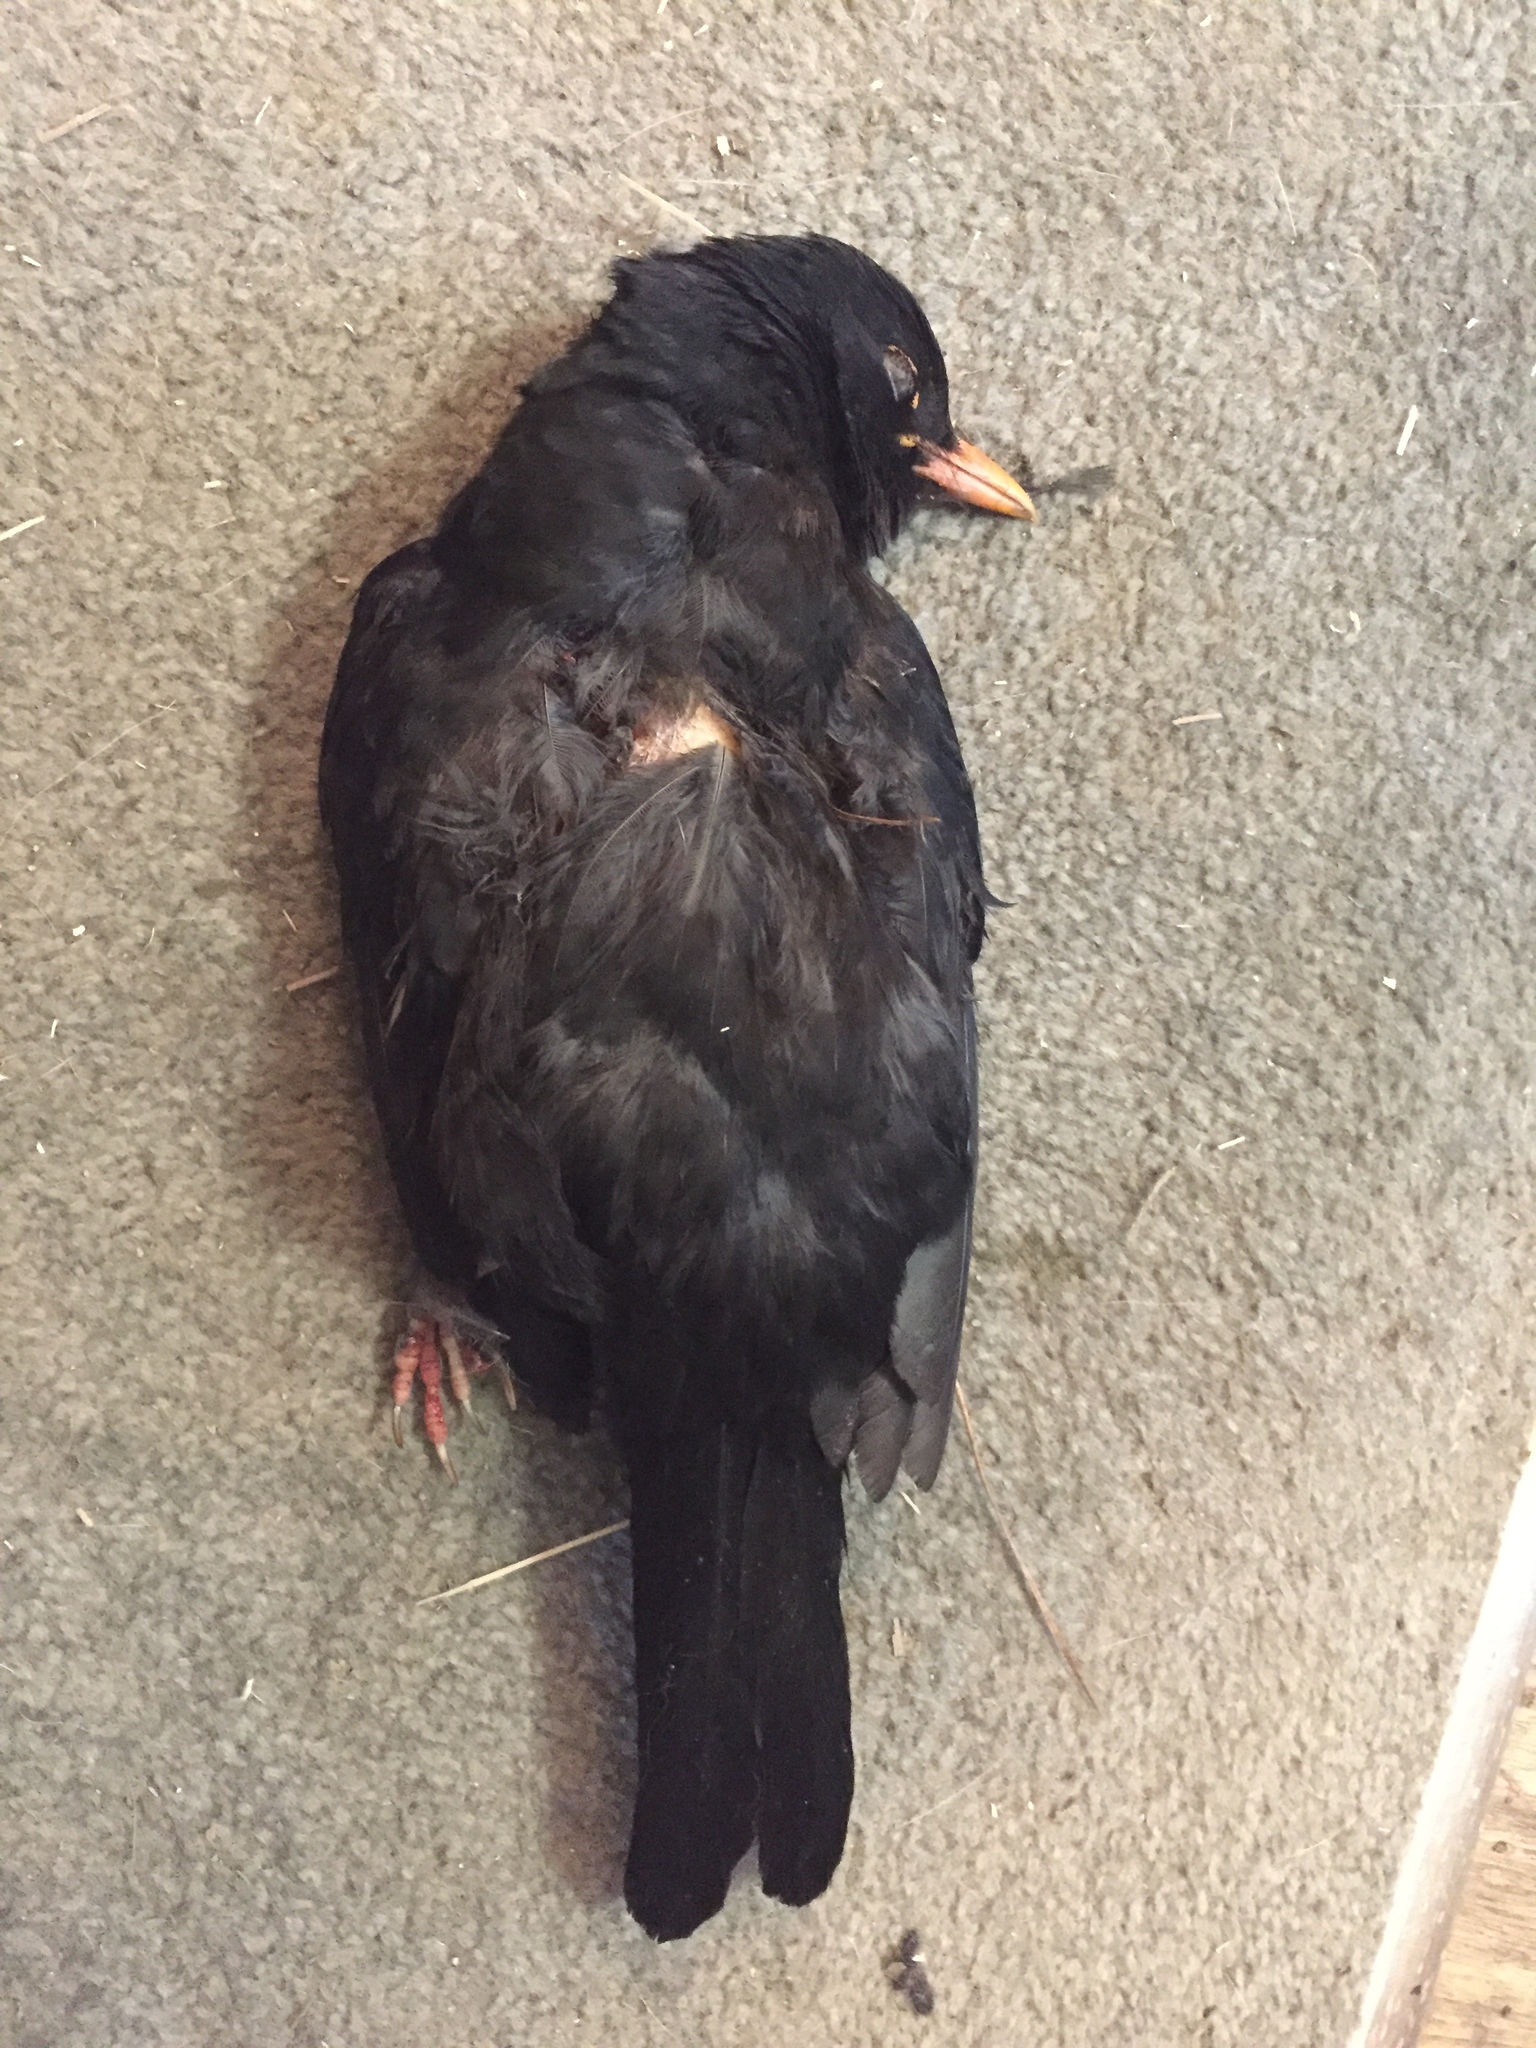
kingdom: Animalia
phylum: Chordata
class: Aves
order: Passeriformes
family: Turdidae
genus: Turdus
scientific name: Turdus merula
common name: Common blackbird
